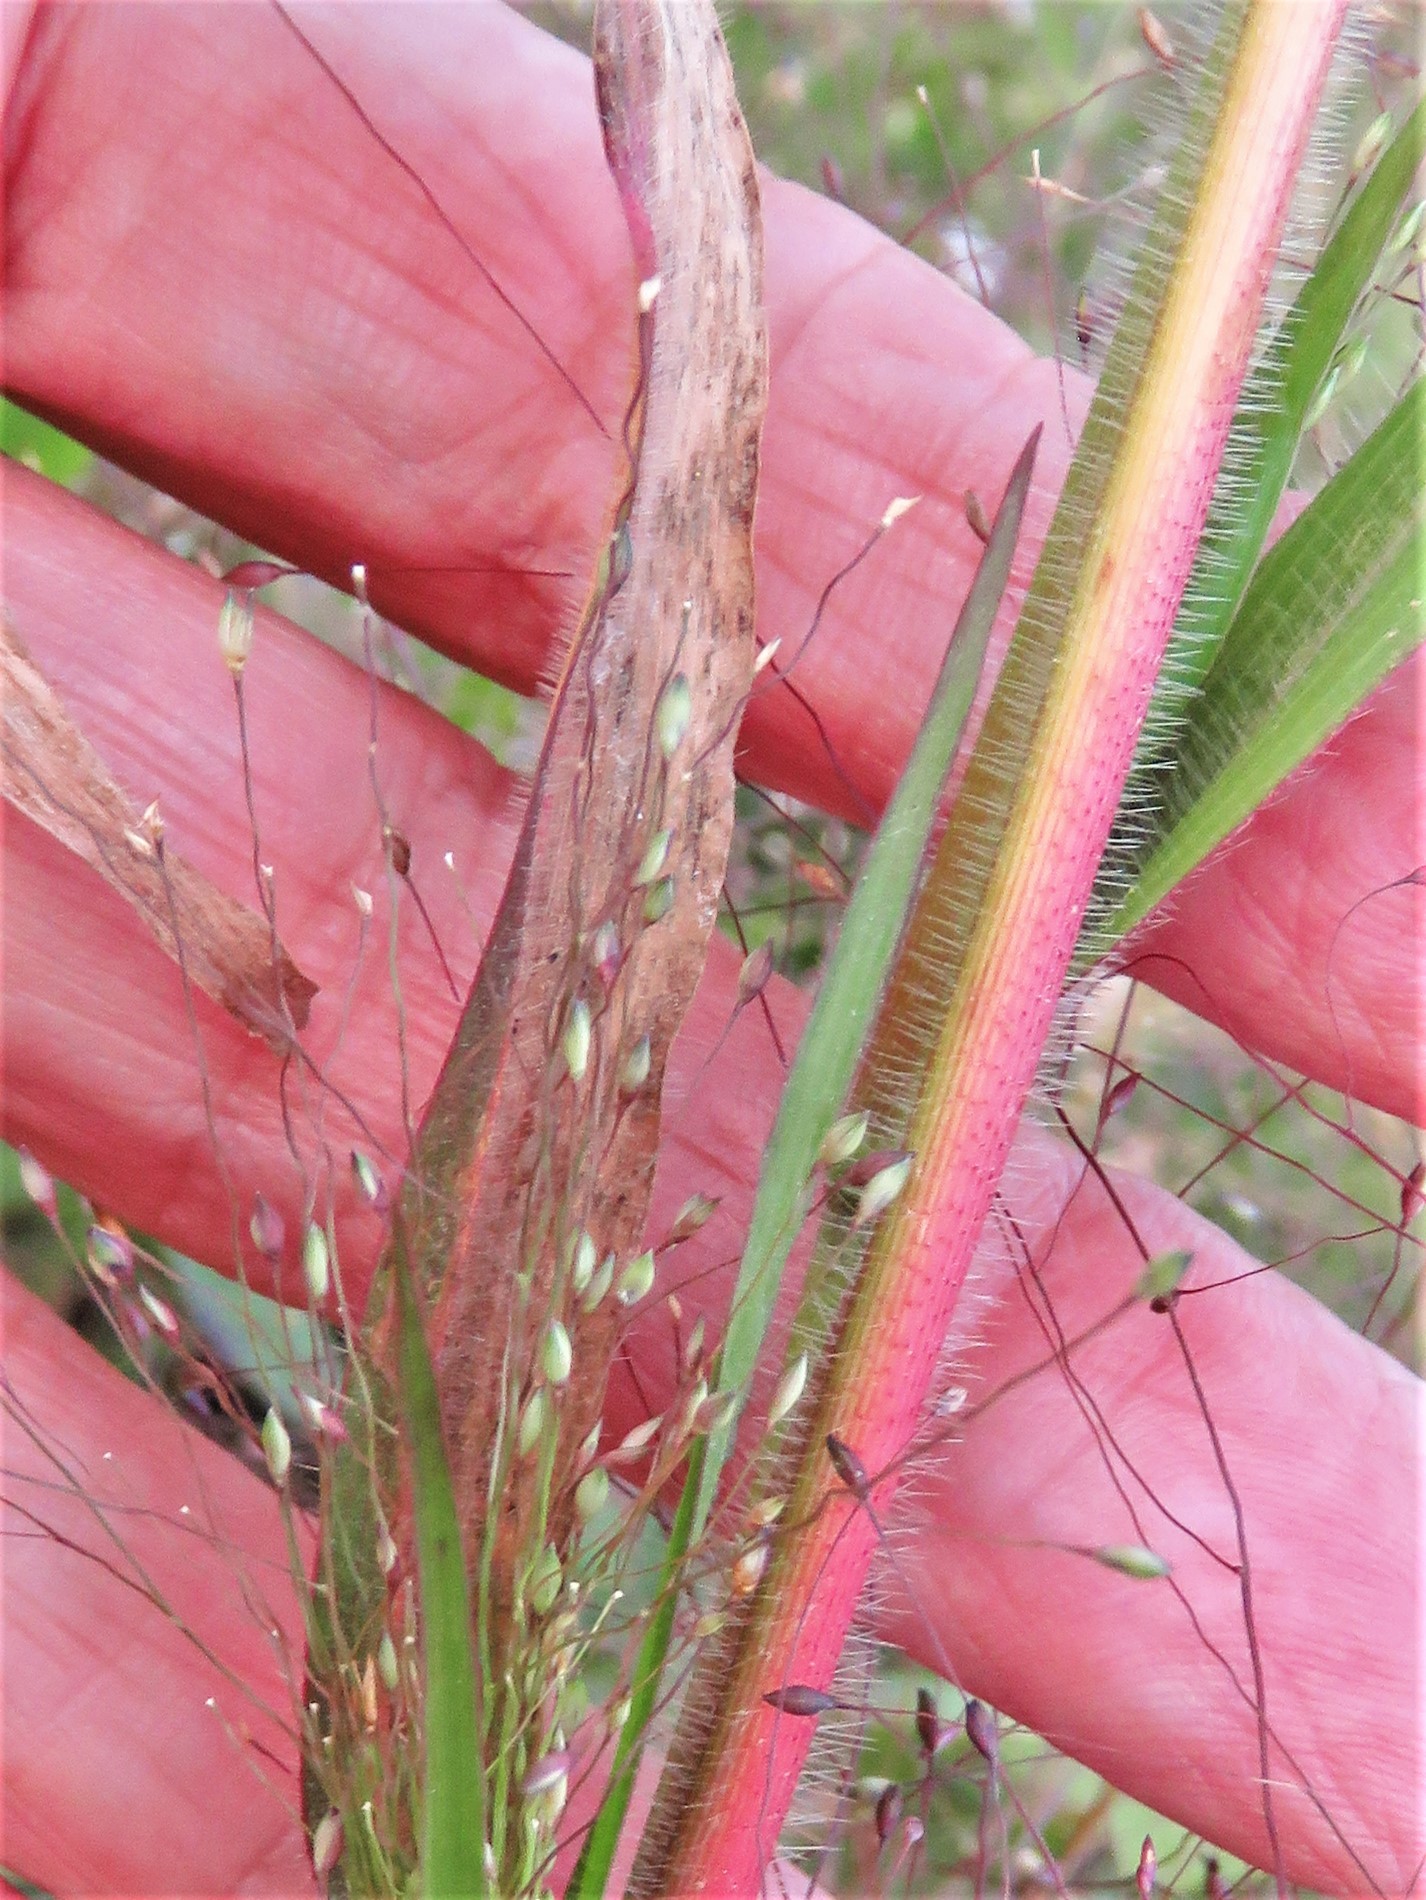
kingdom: Plantae
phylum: Tracheophyta
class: Liliopsida
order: Poales
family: Poaceae
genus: Panicum
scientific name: Panicum capillare
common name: Witch-grass
